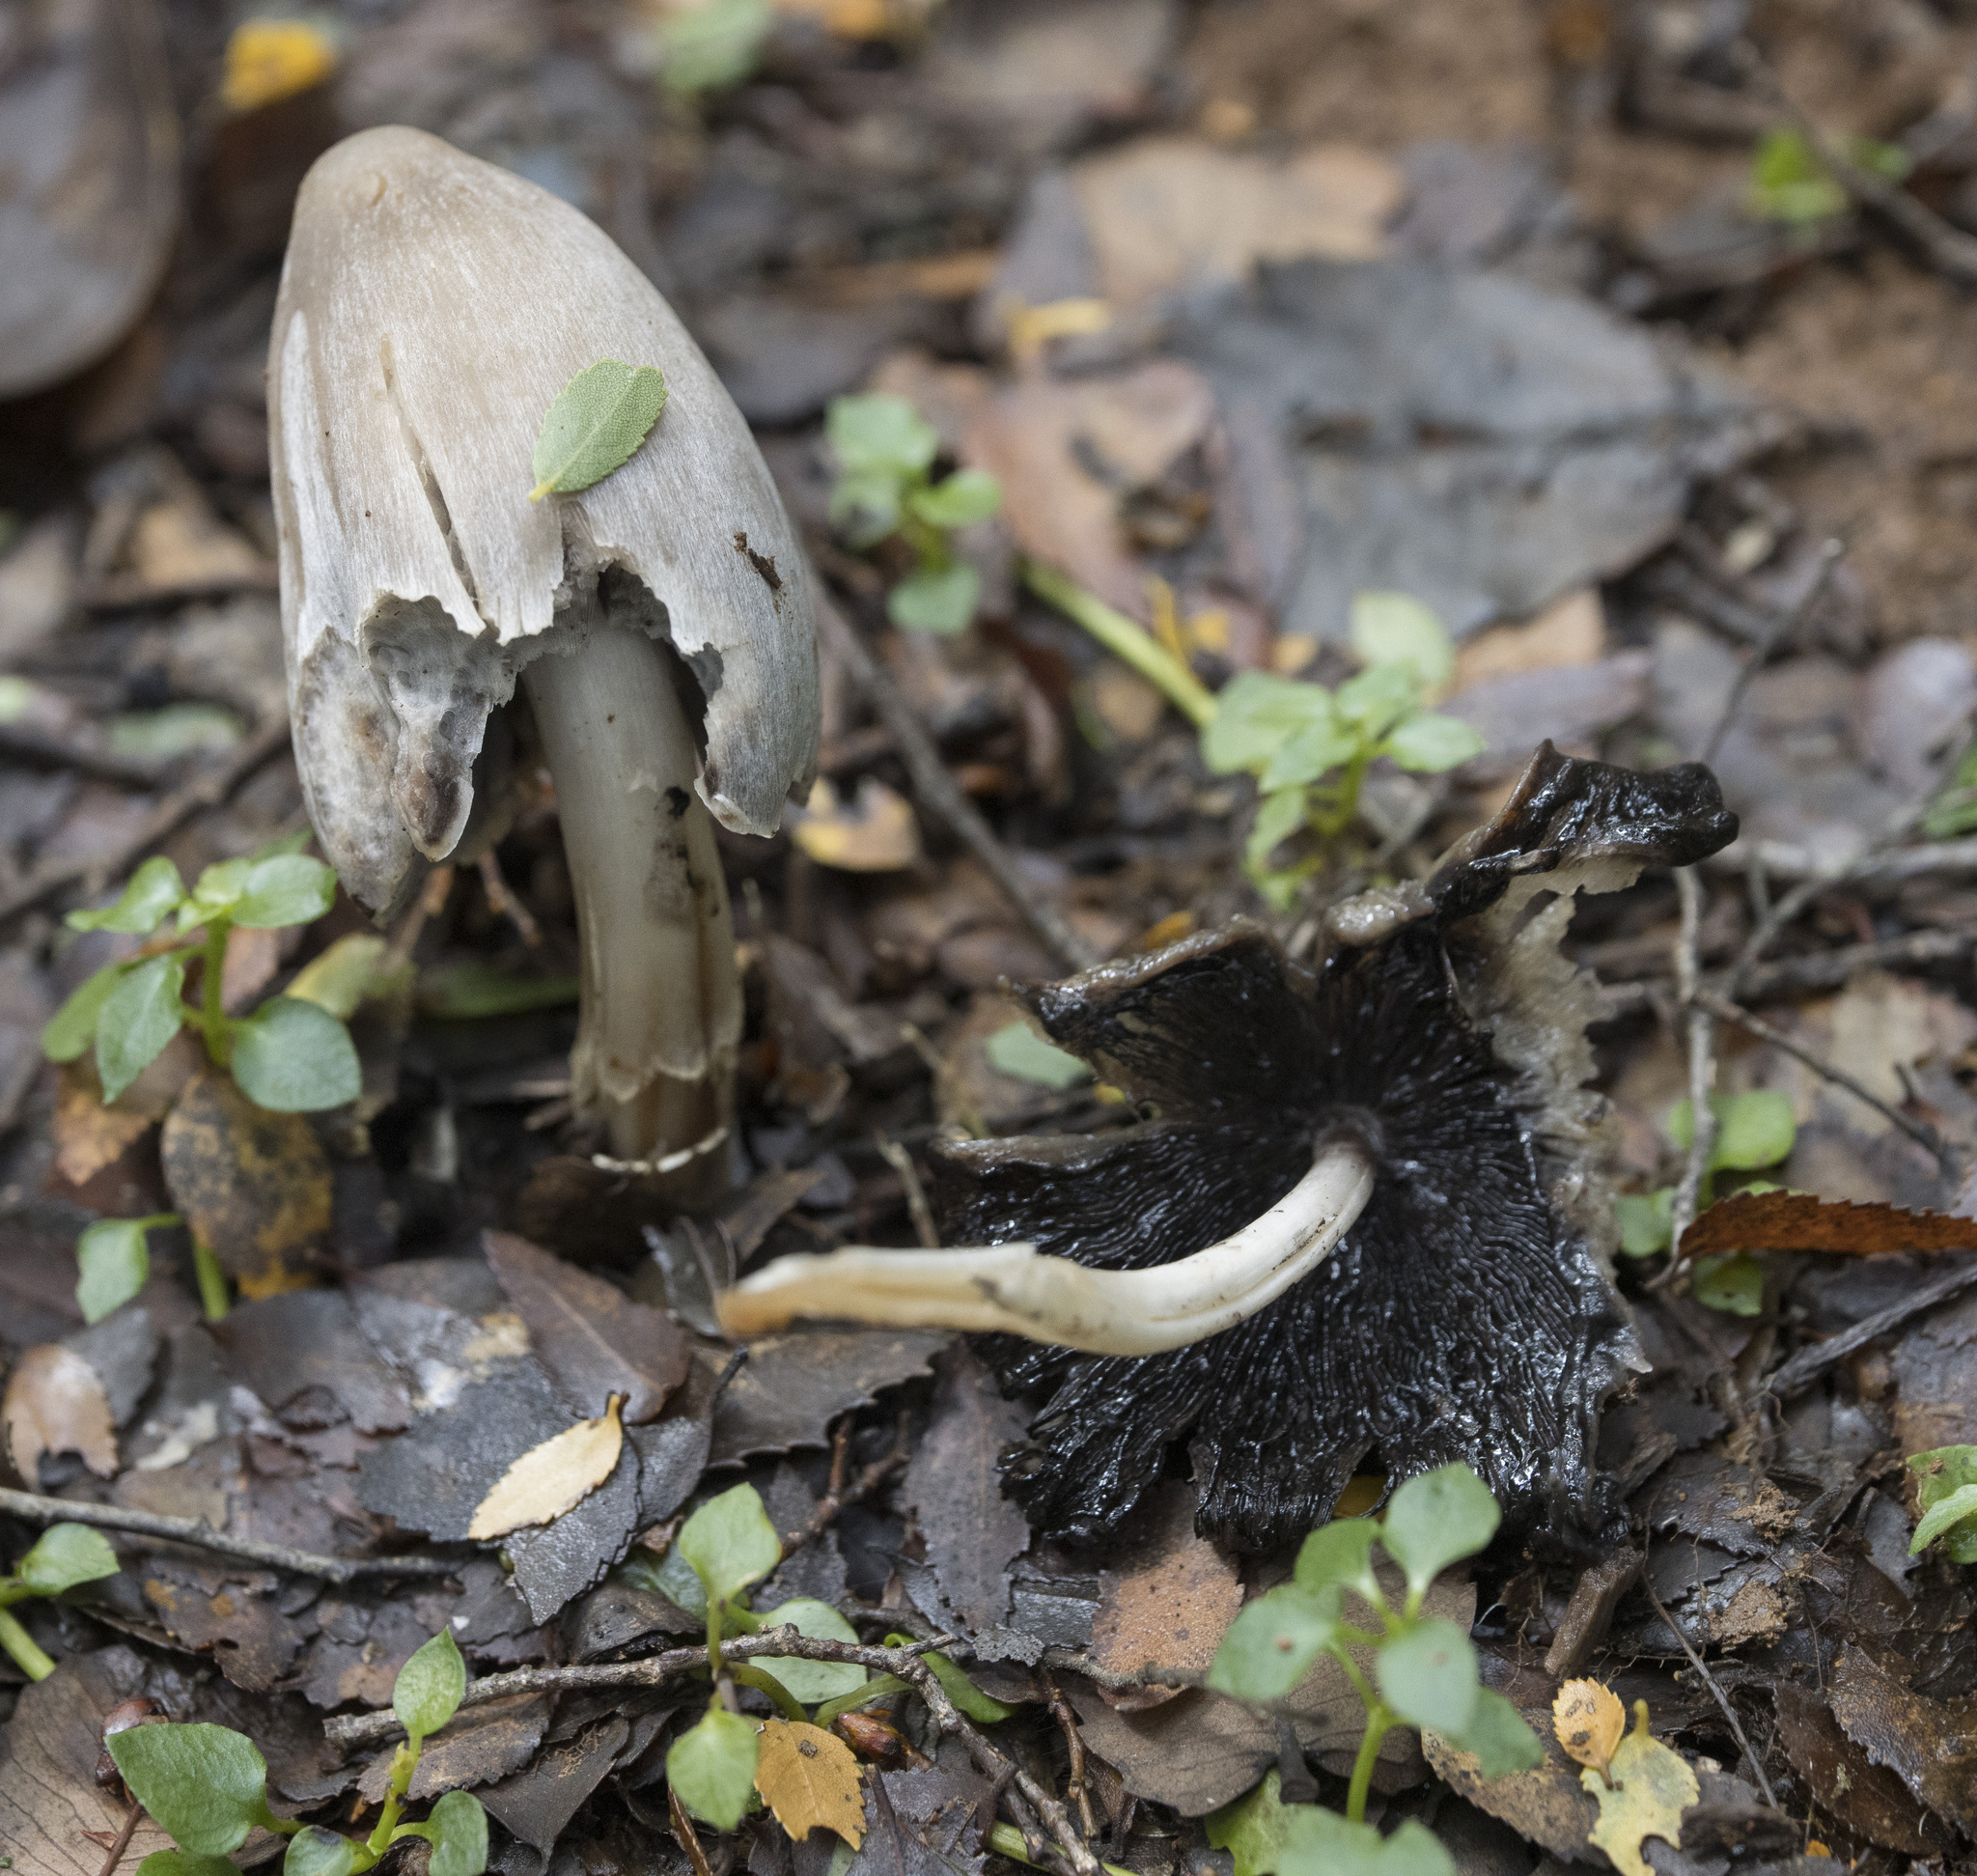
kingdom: Fungi
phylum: Basidiomycota
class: Agaricomycetes
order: Agaricales
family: Psathyrellaceae
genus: Coprinopsis
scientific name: Coprinopsis atramentaria
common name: Common ink-cap
